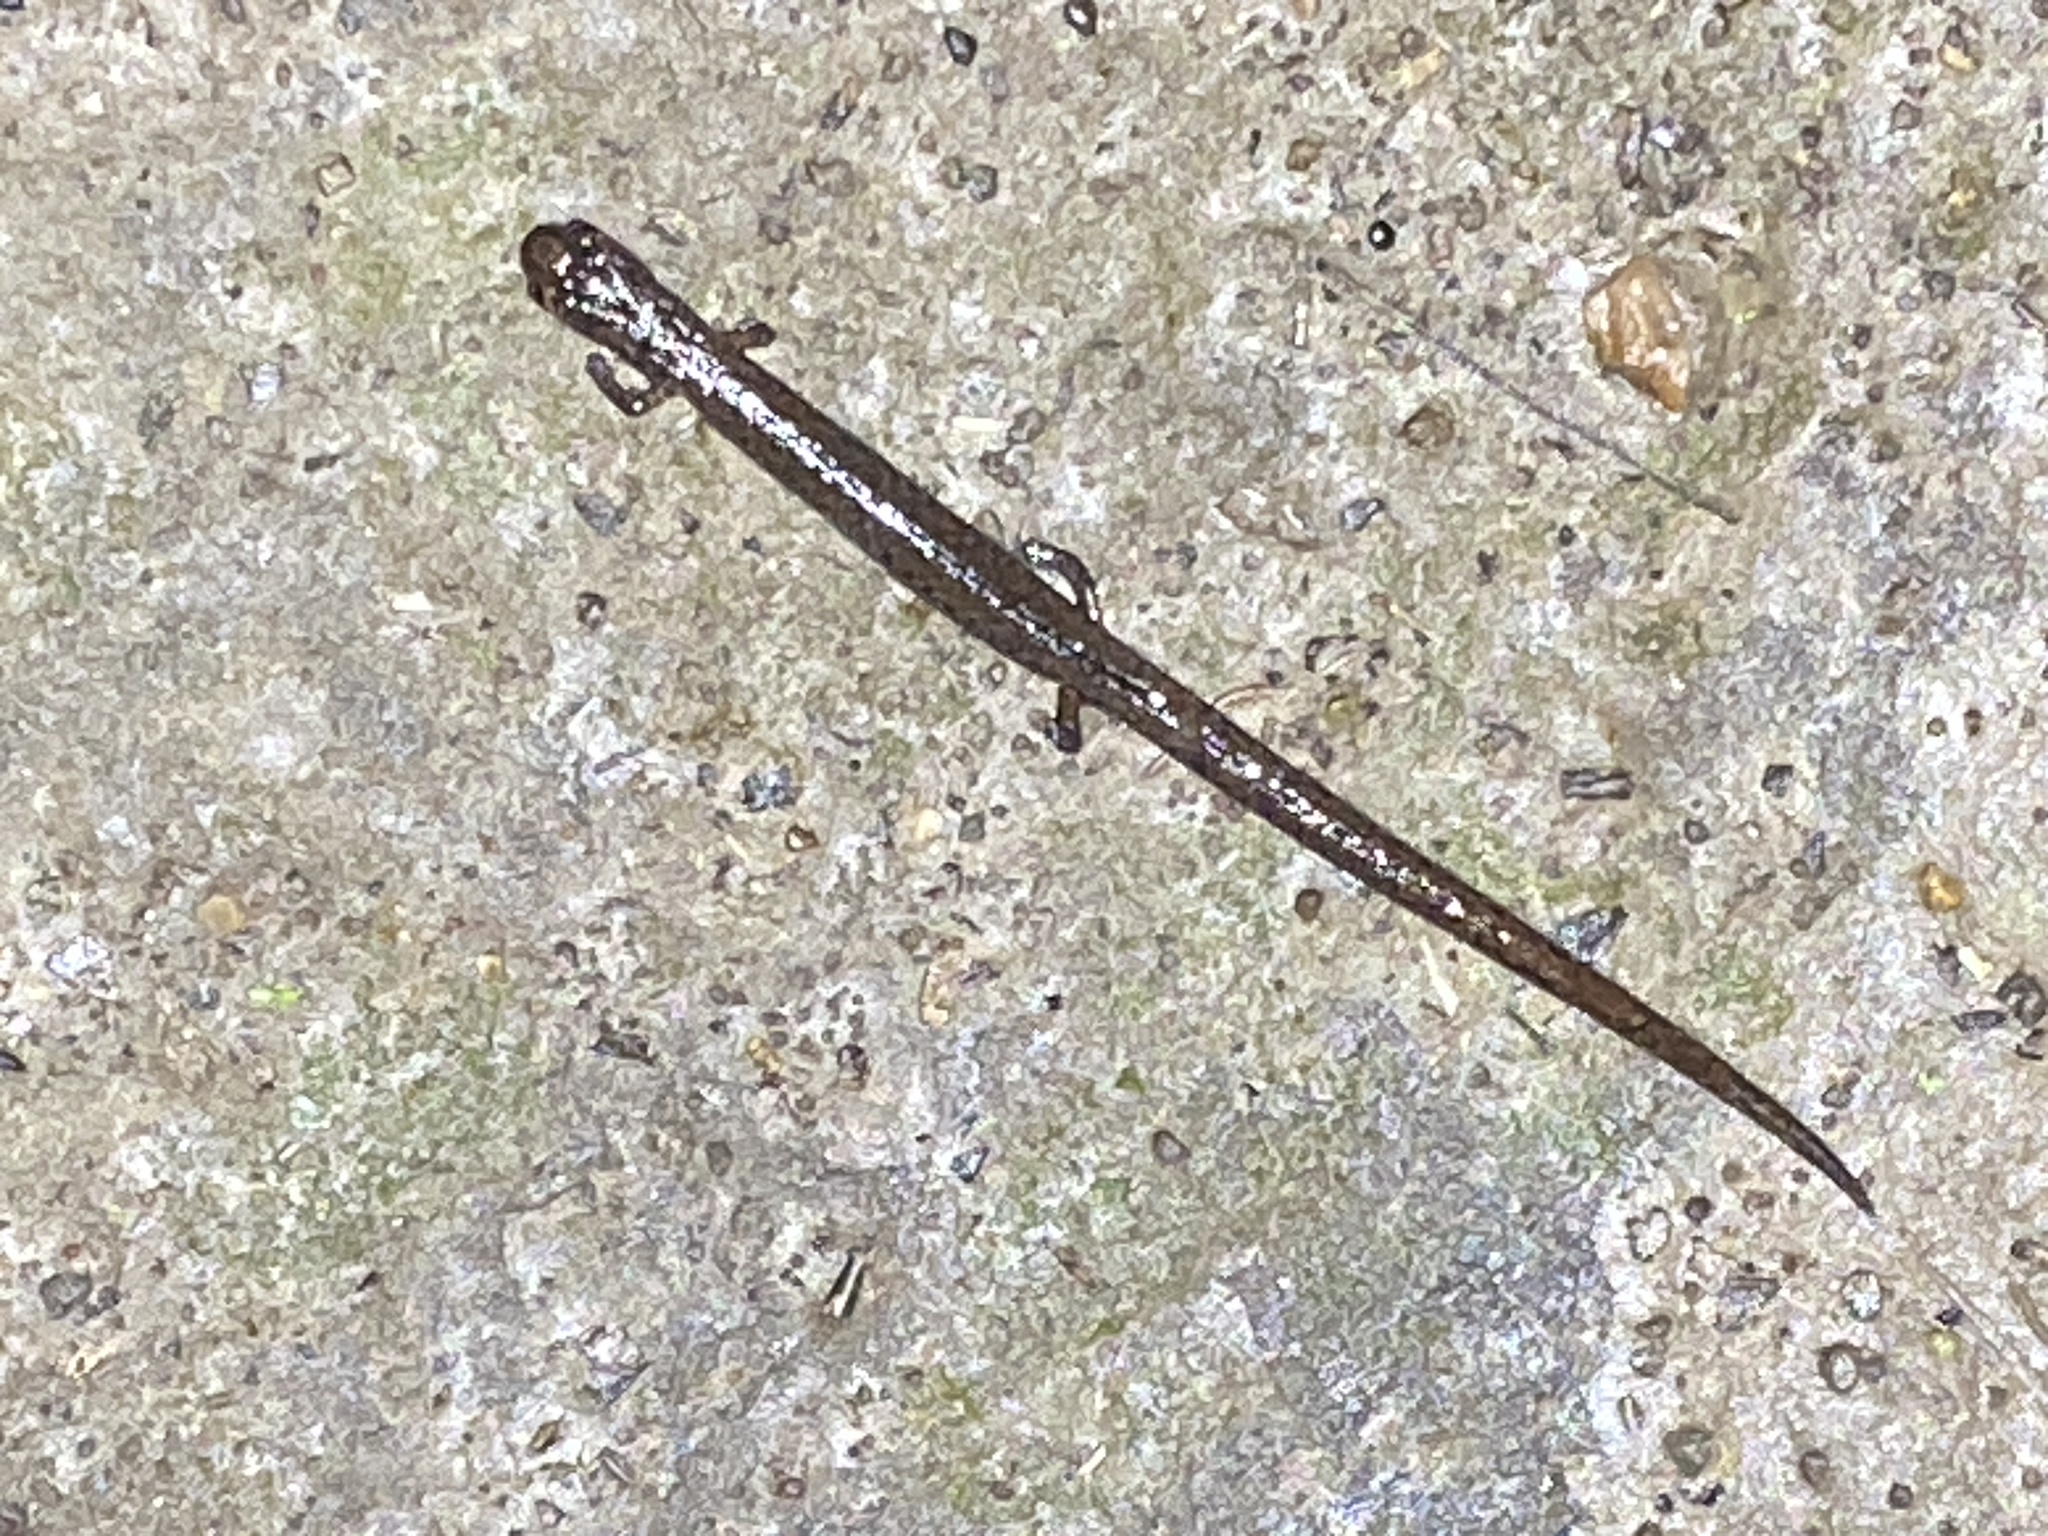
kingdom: Animalia
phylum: Chordata
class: Amphibia
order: Caudata
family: Plethodontidae
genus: Batrachoseps
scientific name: Batrachoseps attenuatus
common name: California slender salamander
